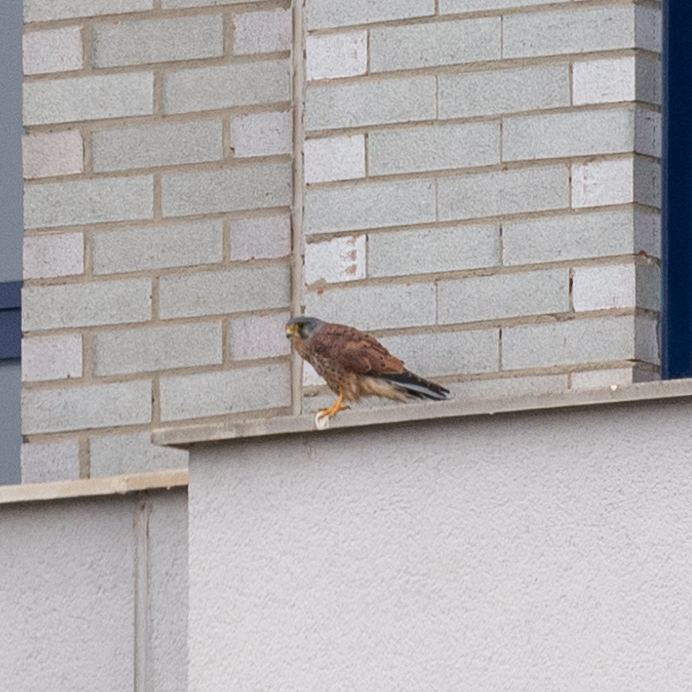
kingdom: Animalia
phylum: Chordata
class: Aves
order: Falconiformes
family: Falconidae
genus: Falco
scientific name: Falco tinnunculus
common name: Common kestrel
